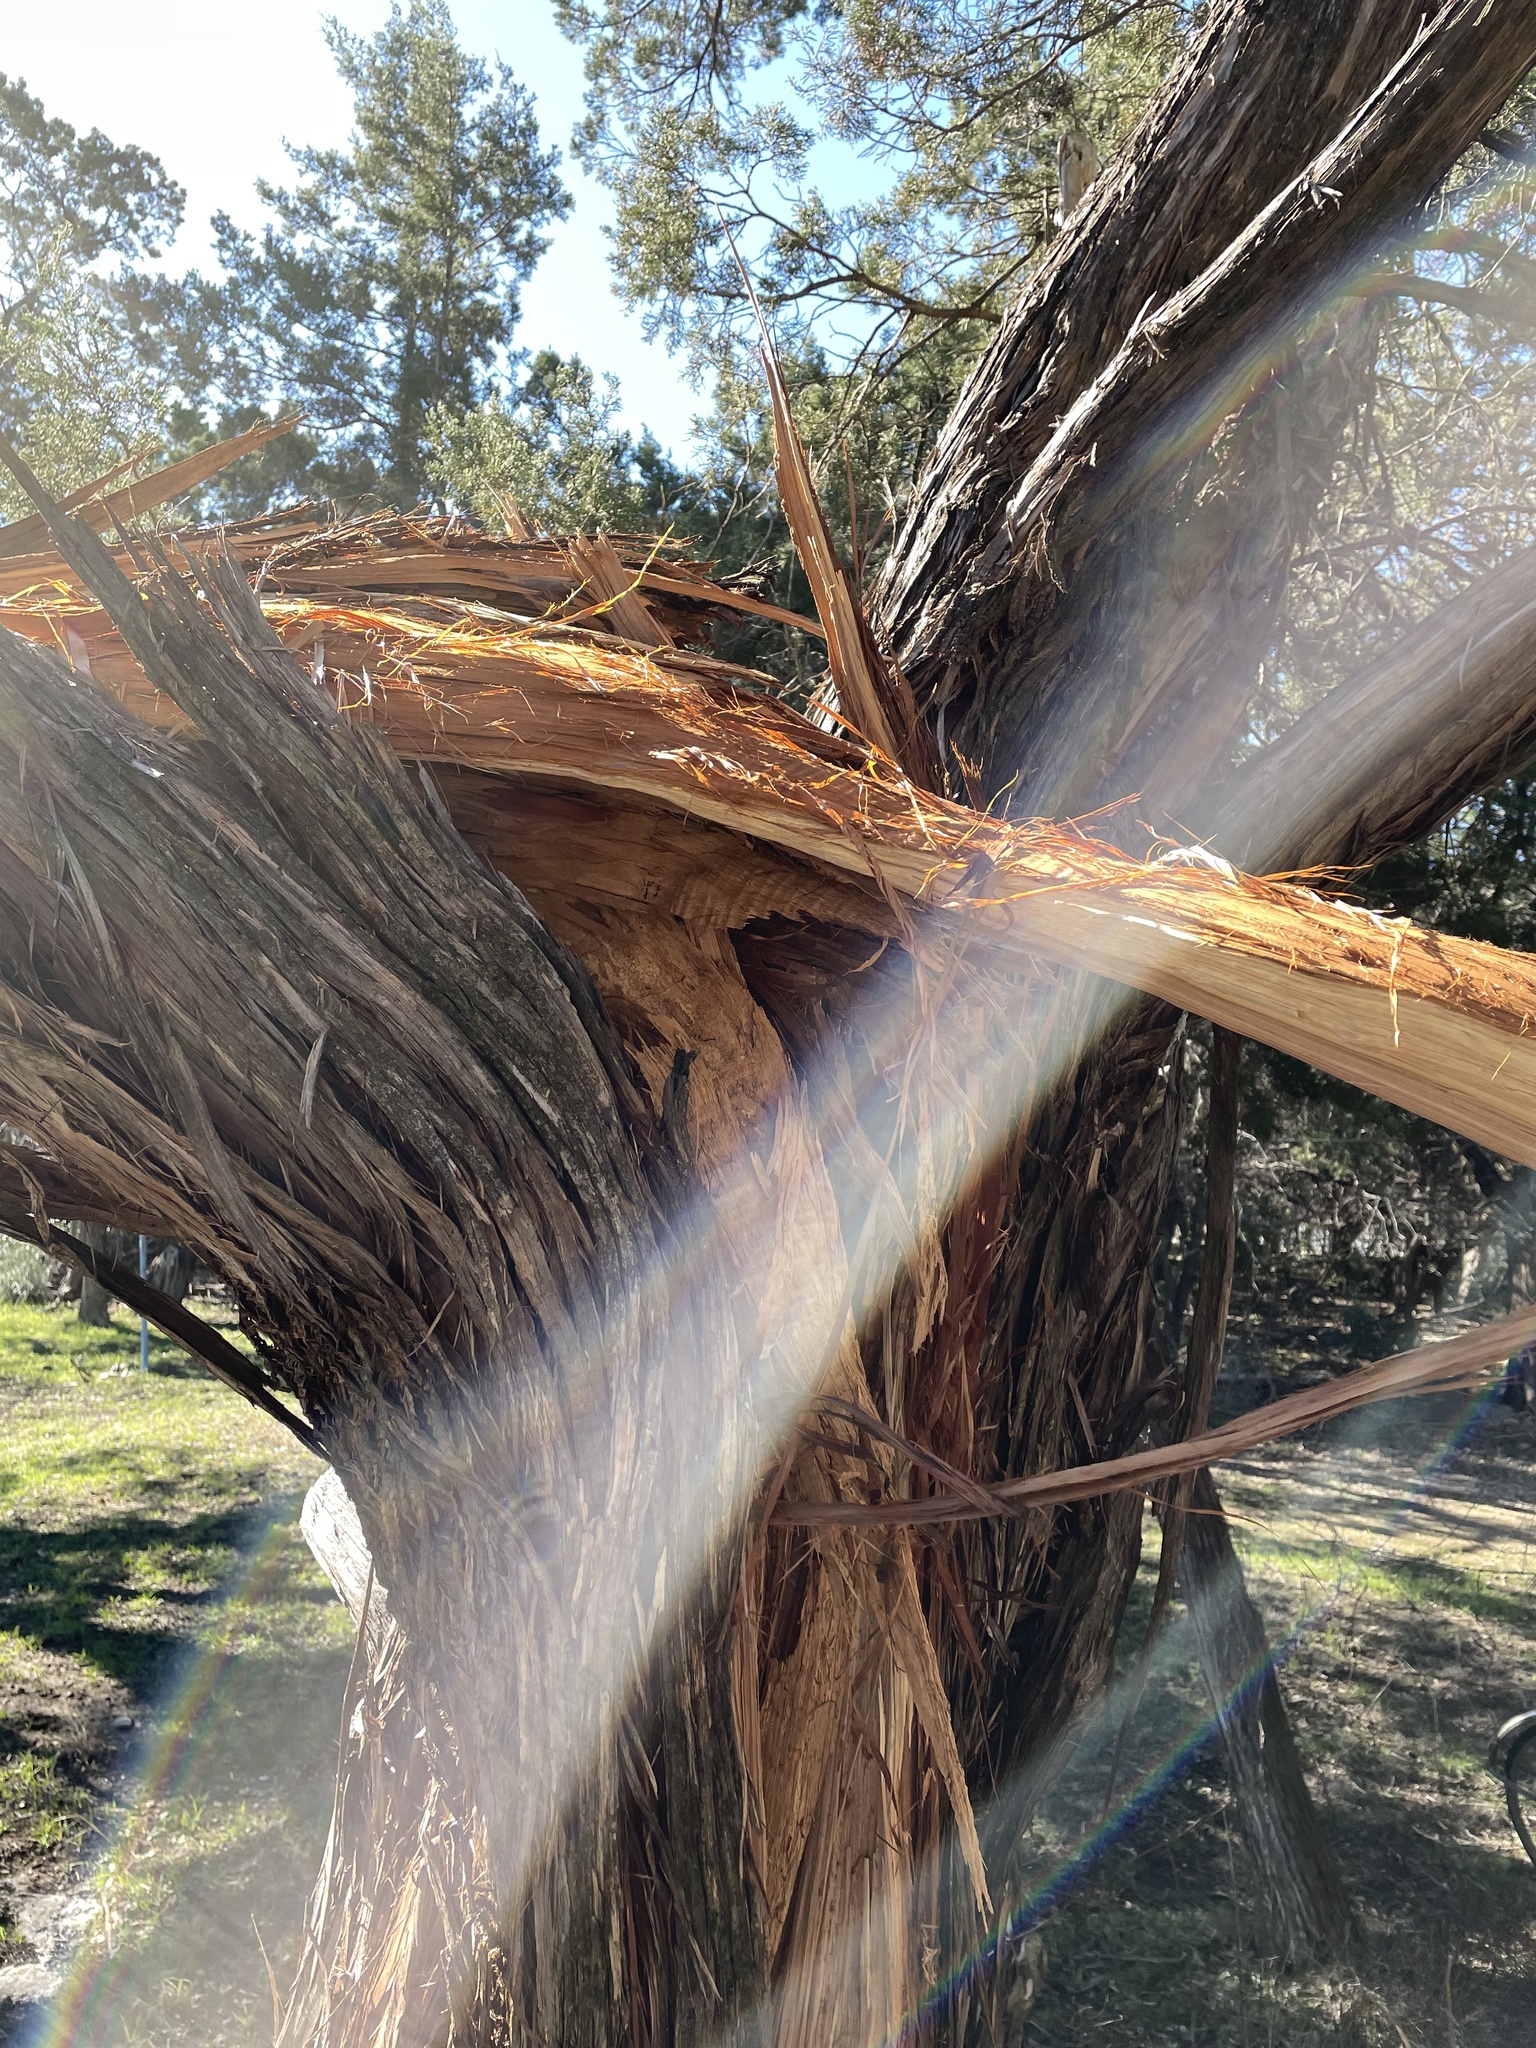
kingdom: Plantae
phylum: Tracheophyta
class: Pinopsida
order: Pinales
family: Cupressaceae
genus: Juniperus
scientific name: Juniperus ashei
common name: Mexican juniper
